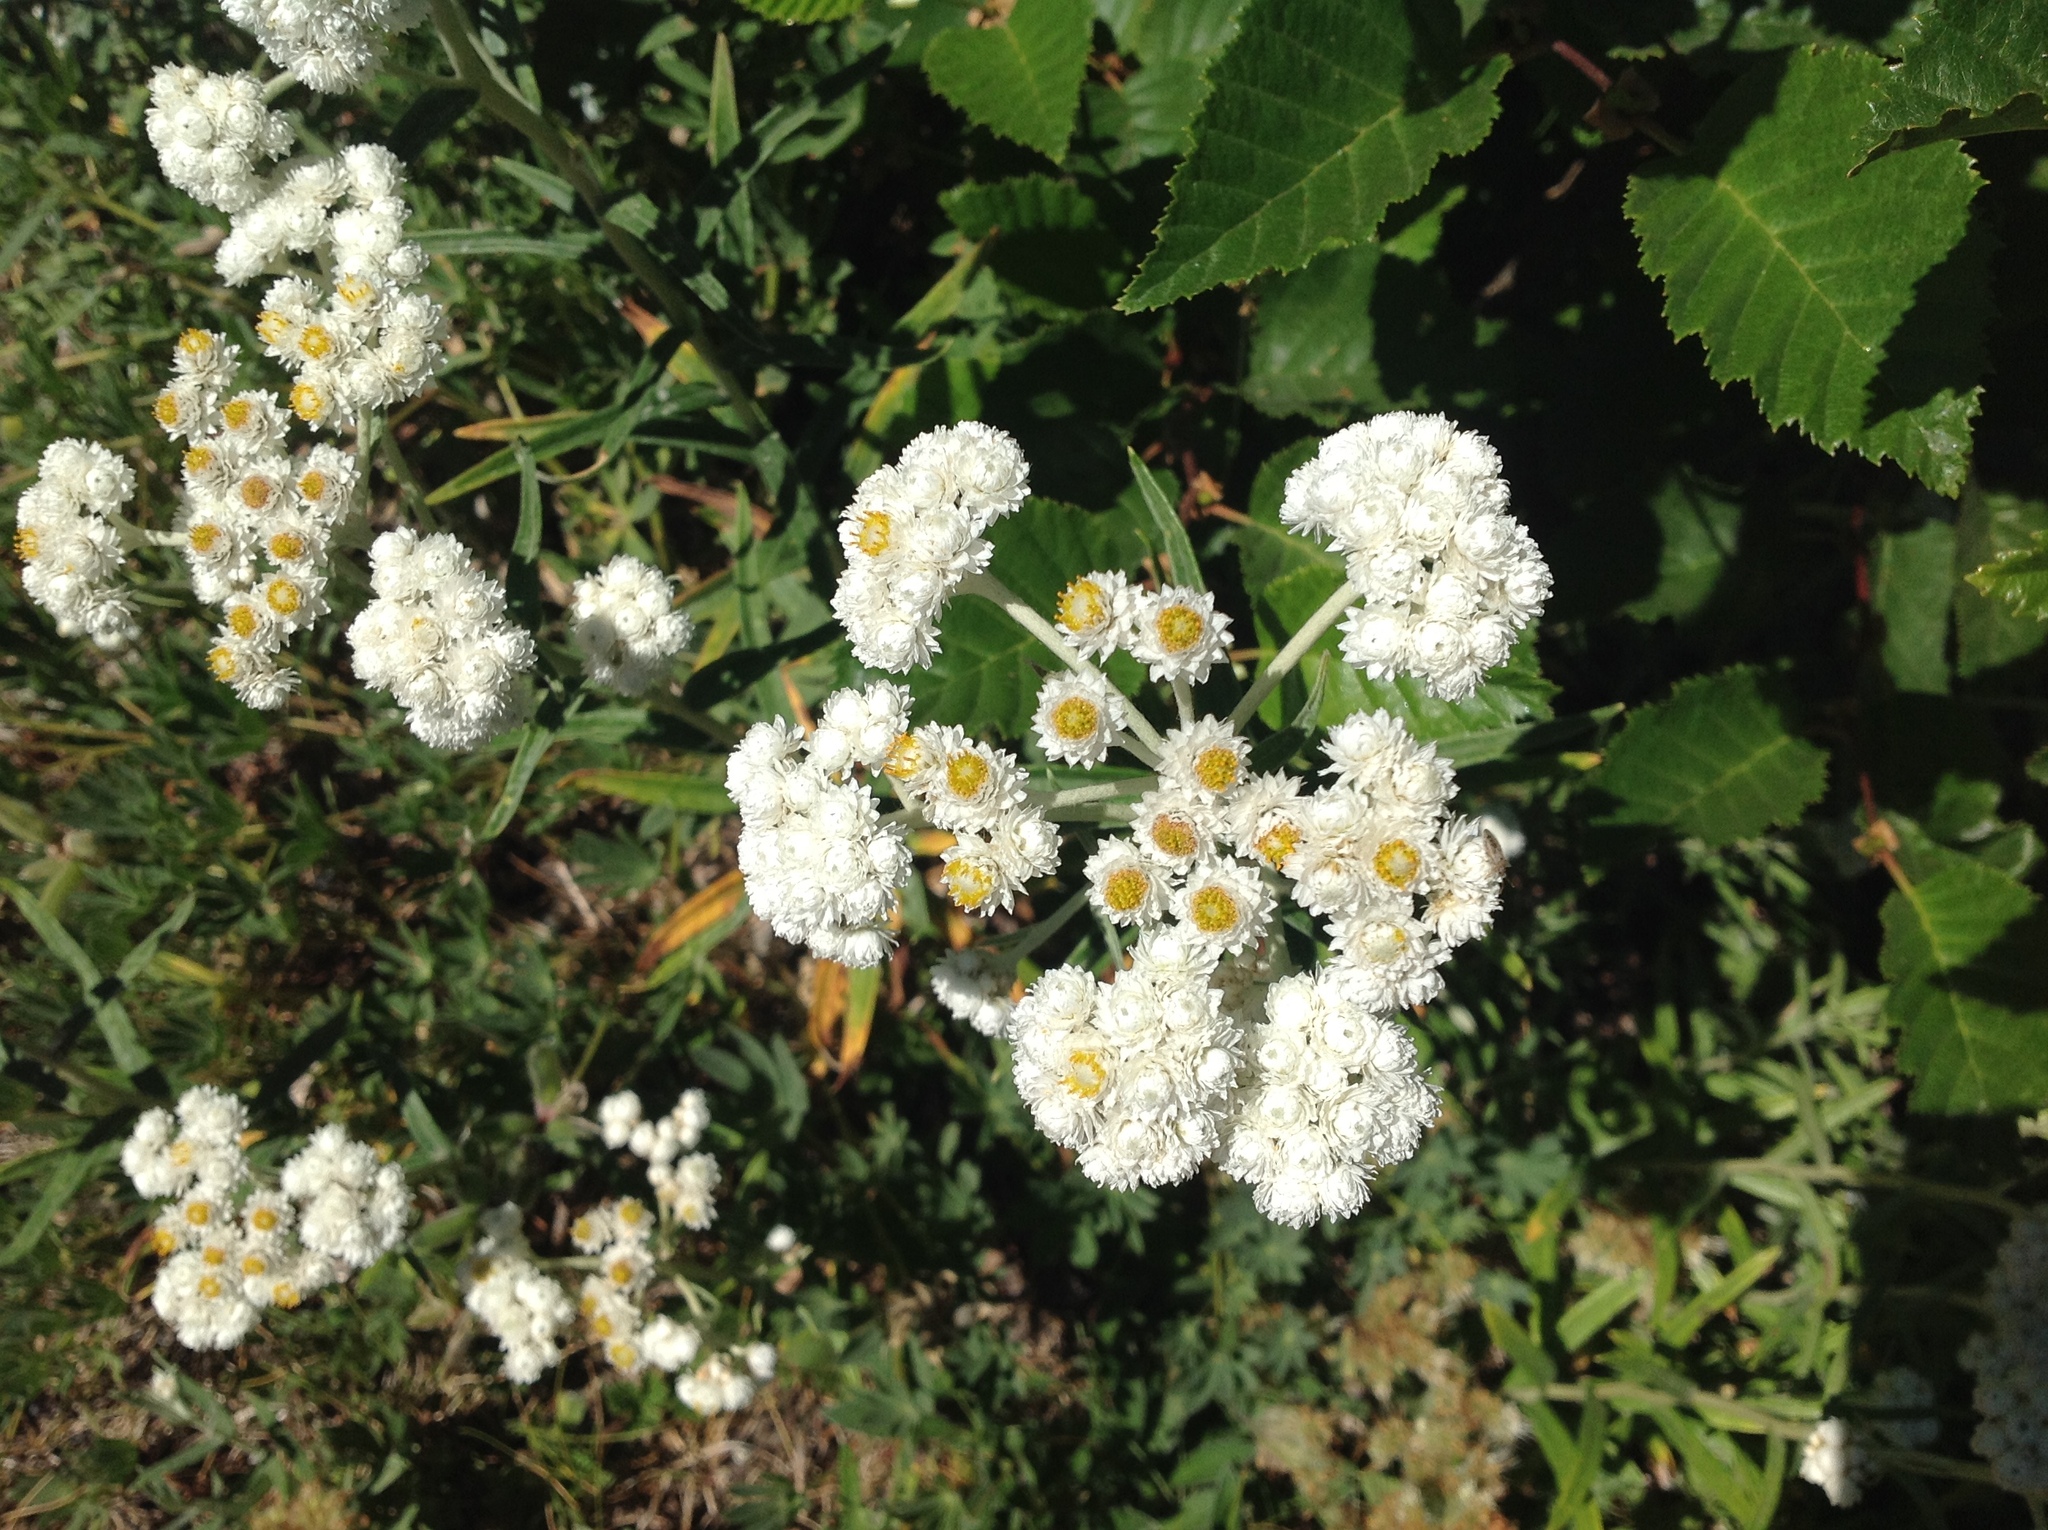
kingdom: Plantae
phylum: Tracheophyta
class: Magnoliopsida
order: Asterales
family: Asteraceae
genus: Anaphalis
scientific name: Anaphalis margaritacea
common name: Pearly everlasting
